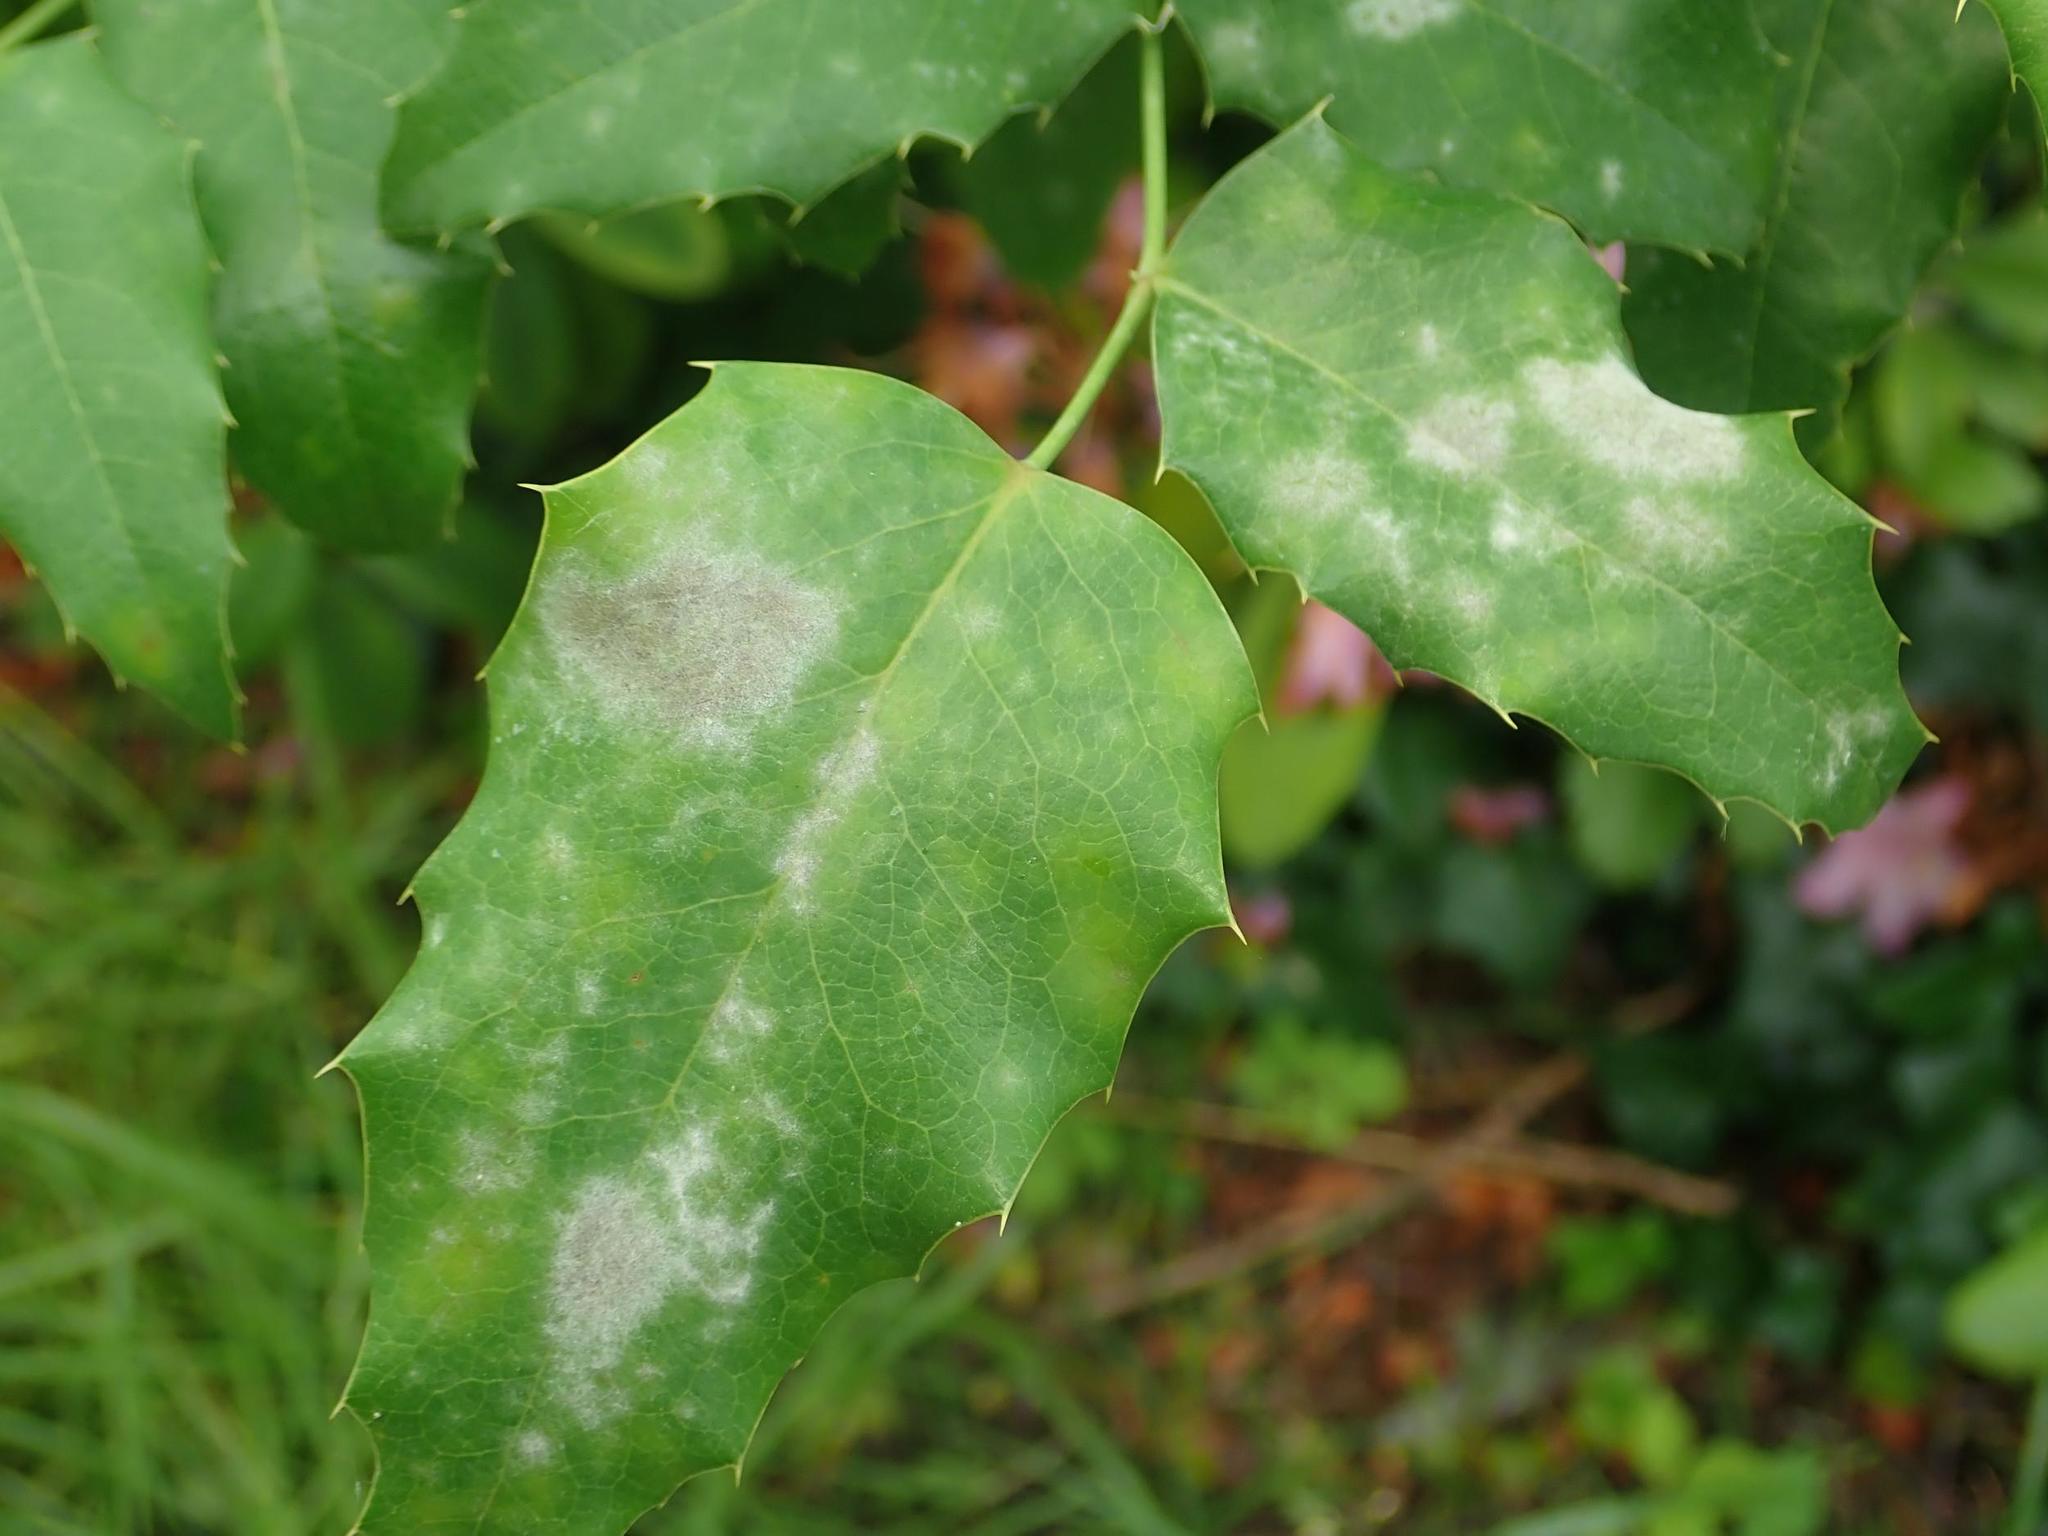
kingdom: Plantae
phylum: Tracheophyta
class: Magnoliopsida
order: Ranunculales
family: Berberidaceae
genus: Mahonia
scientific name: Mahonia aquifolium
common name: Oregon-grape
